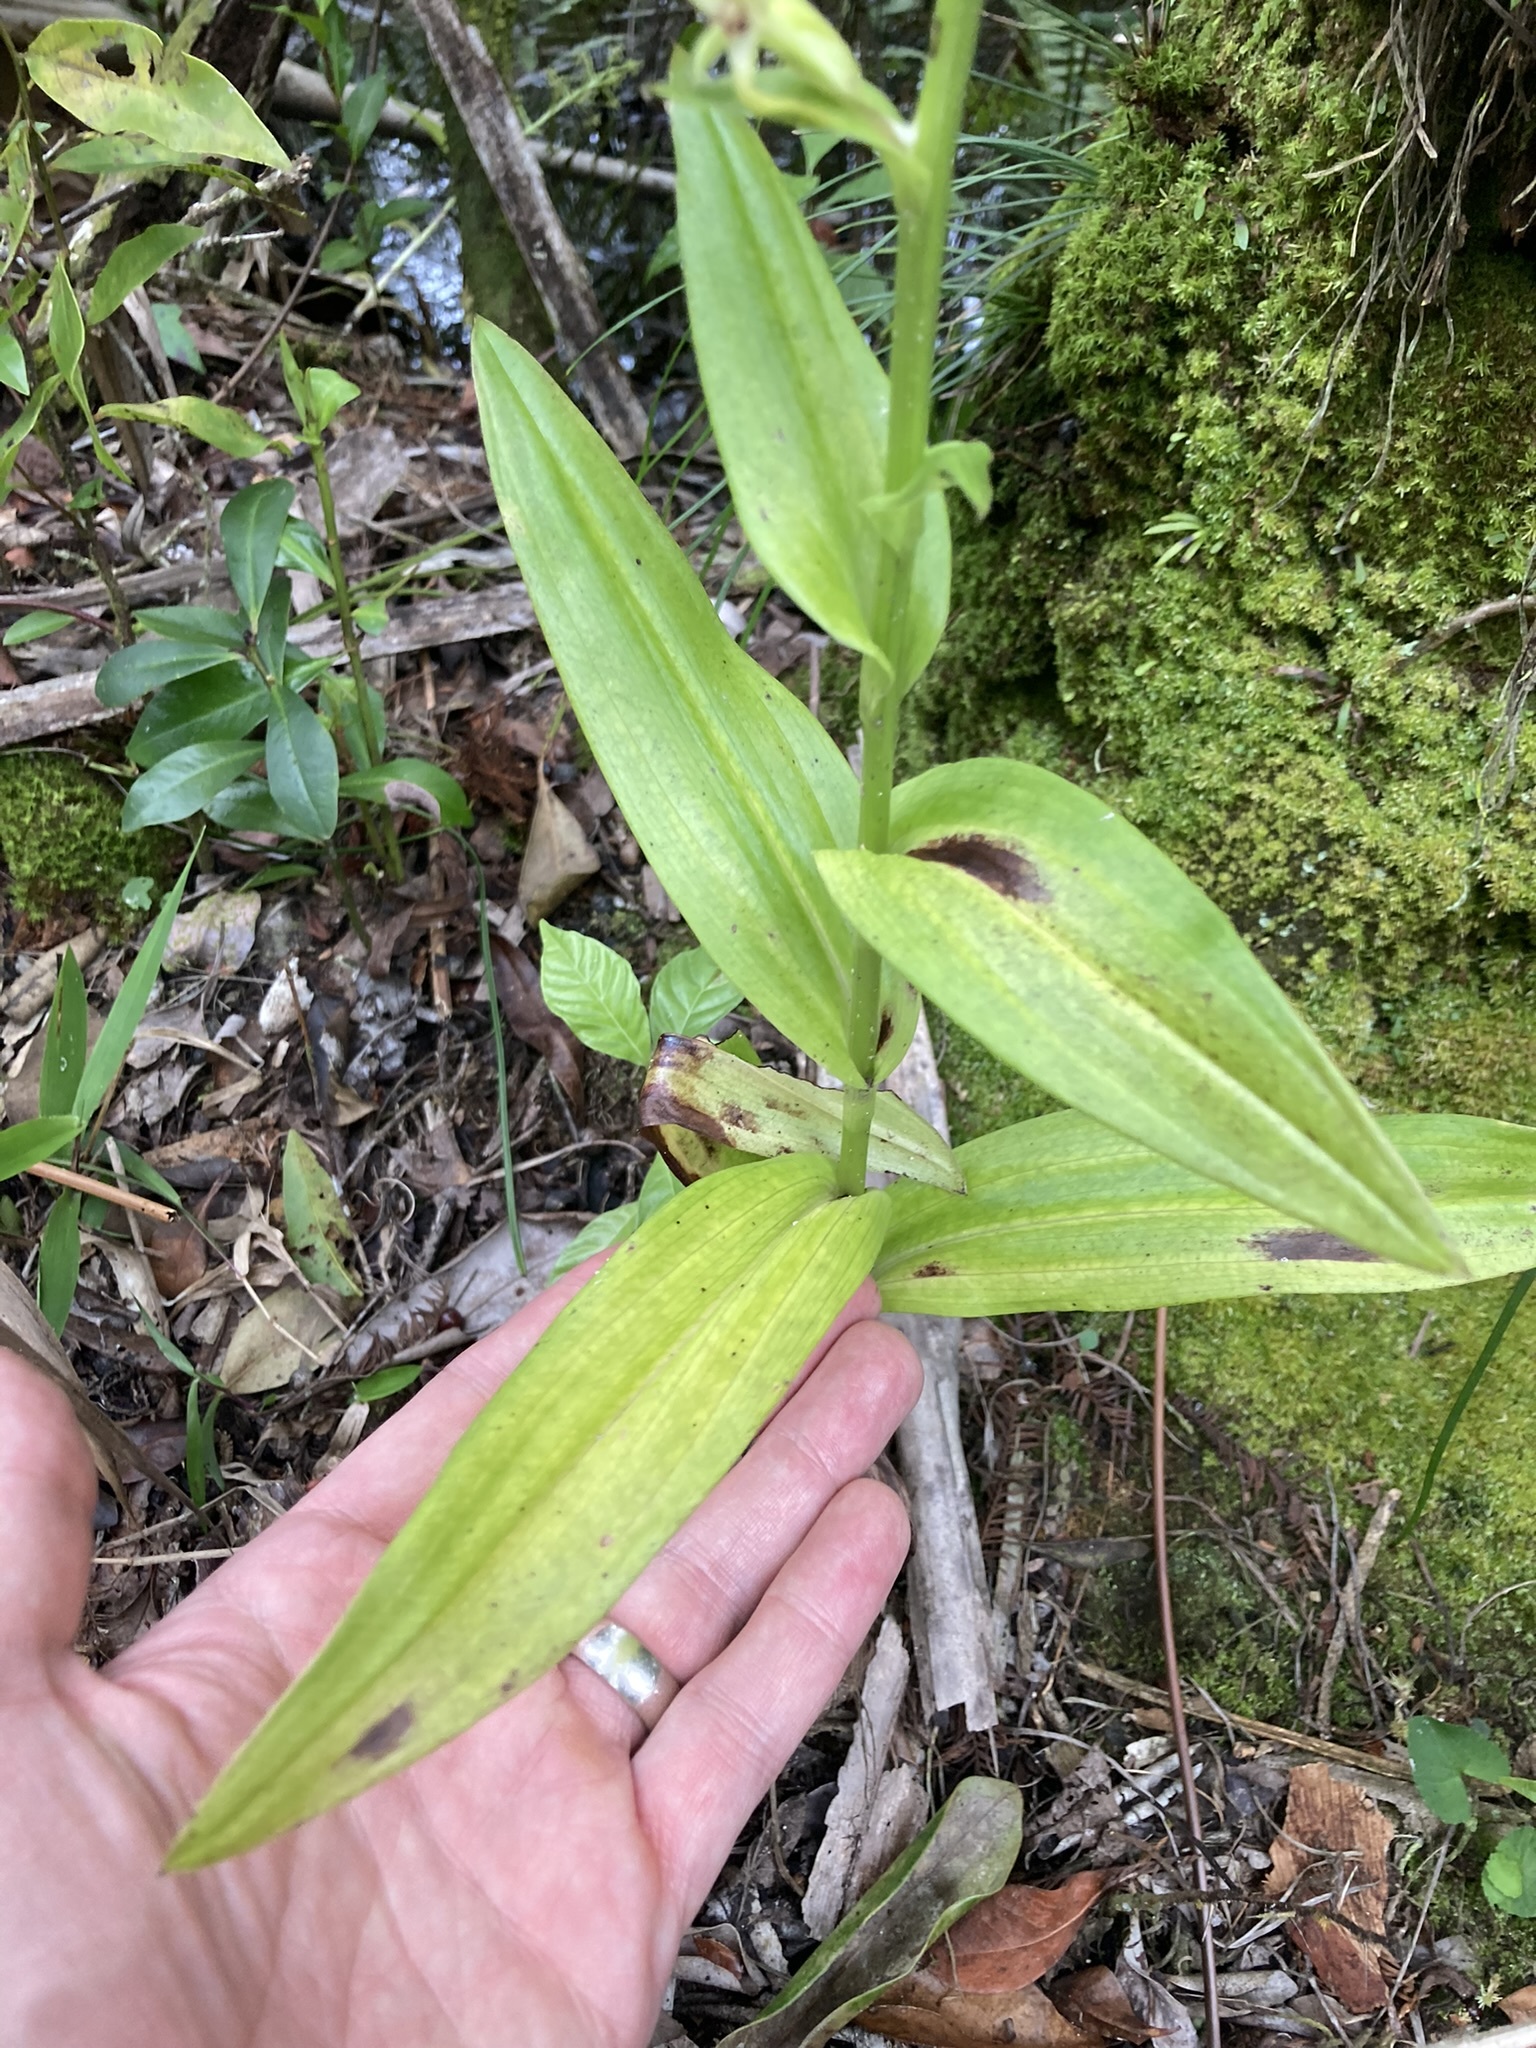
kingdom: Plantae
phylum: Tracheophyta
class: Liliopsida
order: Asparagales
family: Orchidaceae
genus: Habenaria
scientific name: Habenaria floribunda
